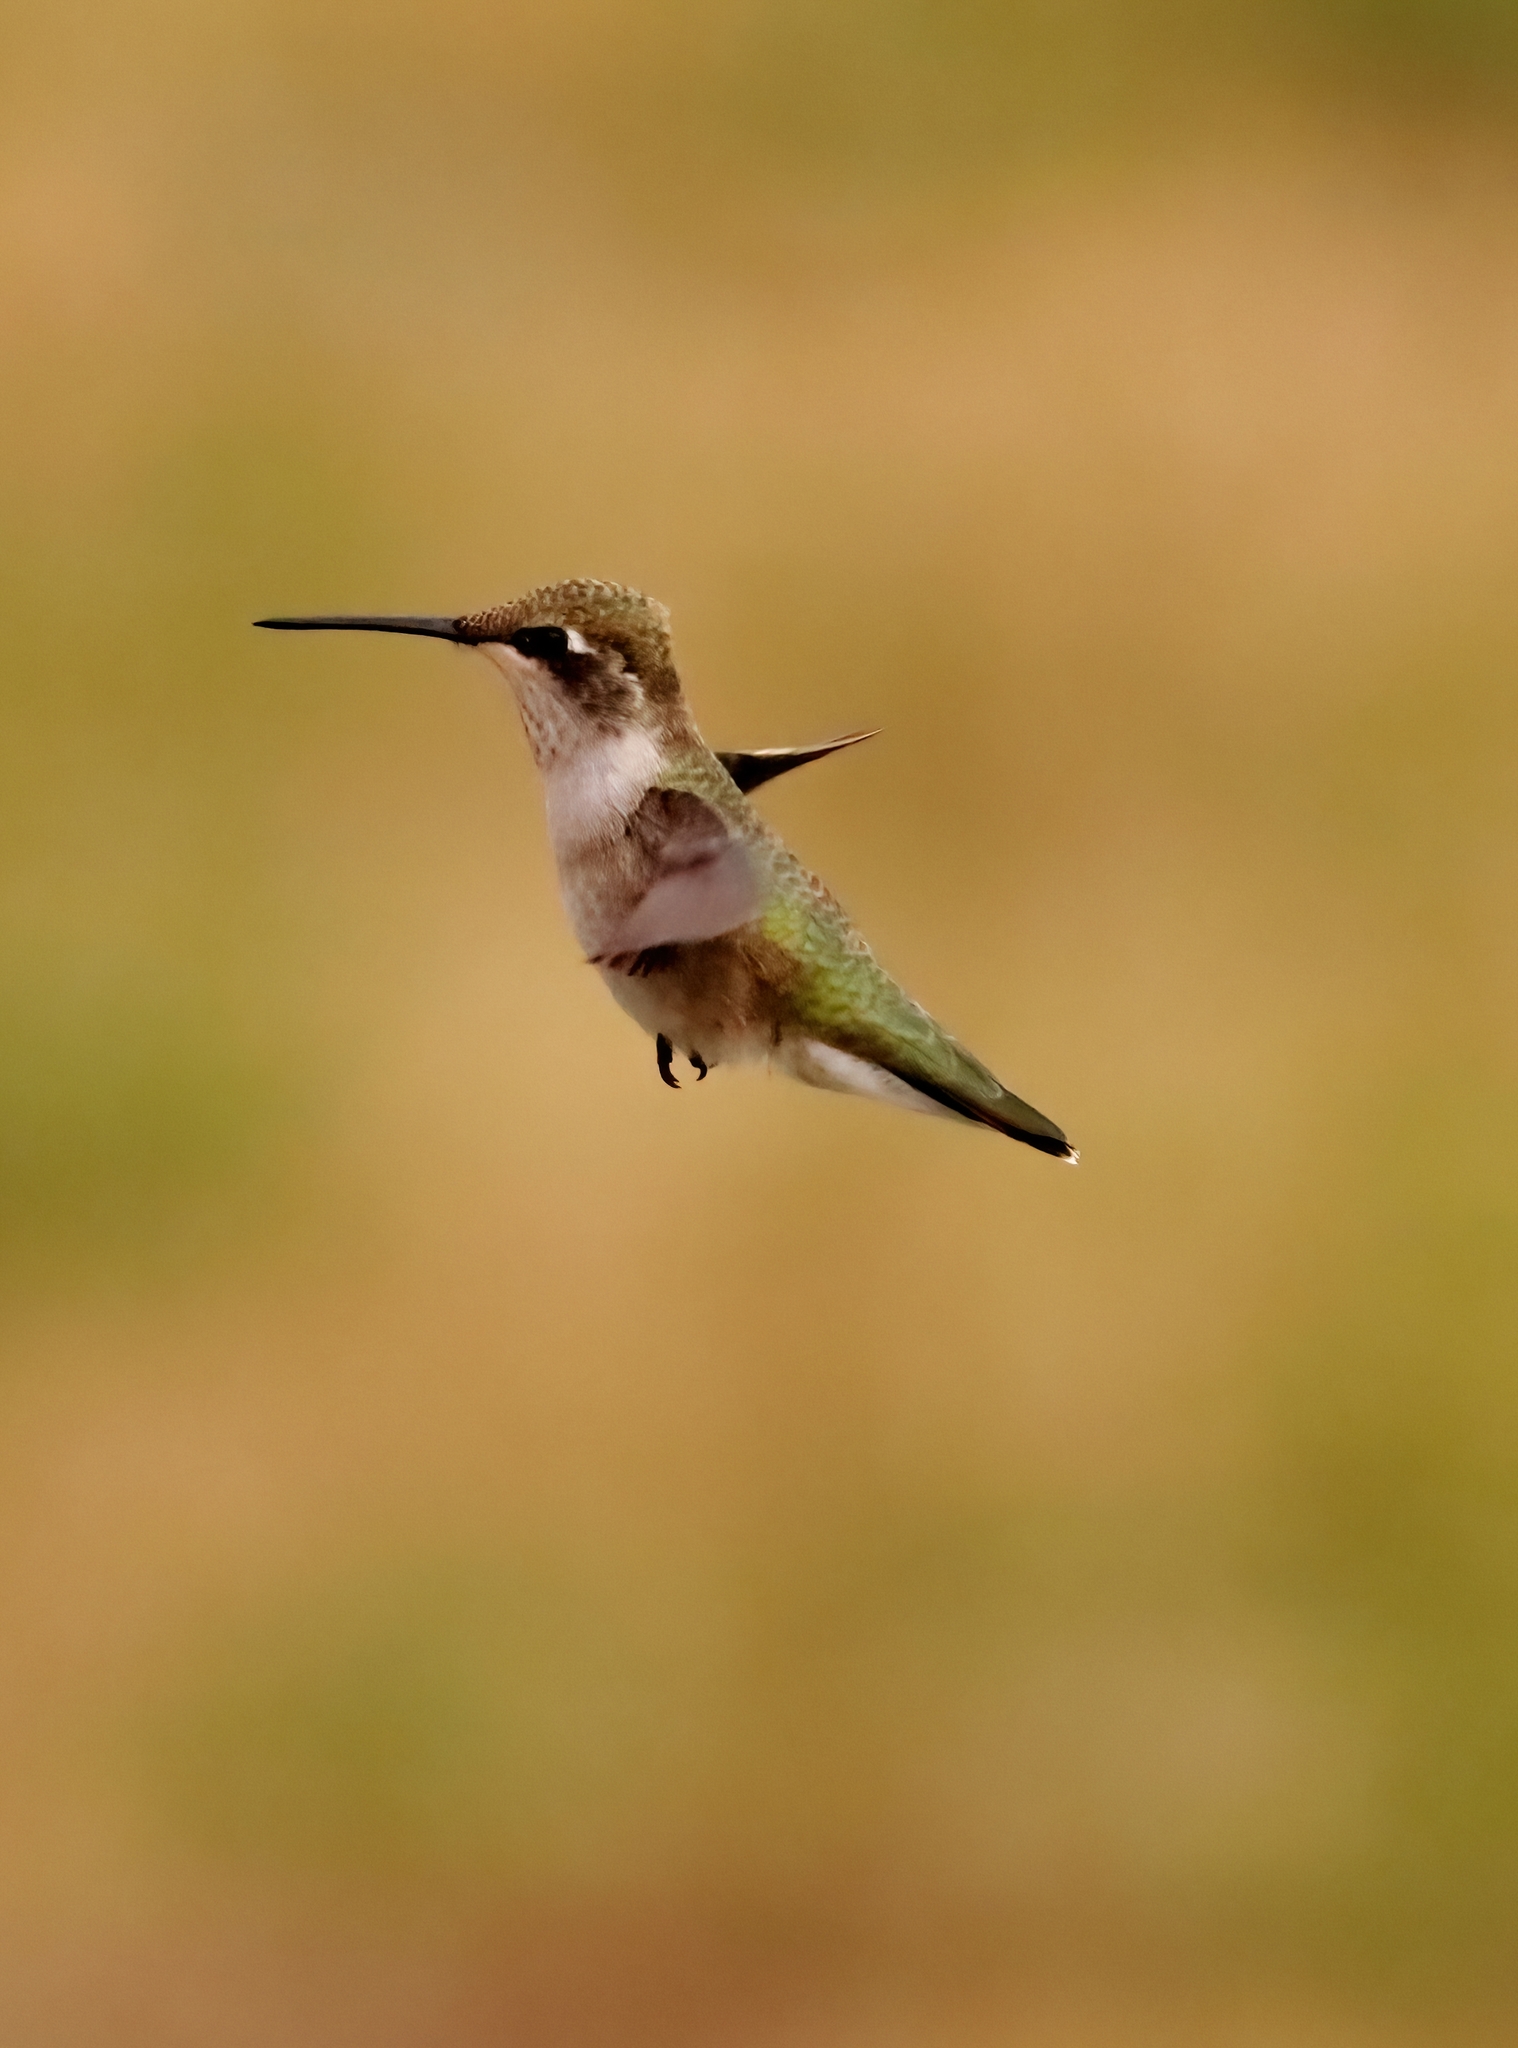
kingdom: Animalia
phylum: Chordata
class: Aves
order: Apodiformes
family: Trochilidae
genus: Archilochus
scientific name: Archilochus alexandri
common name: Black-chinned hummingbird
